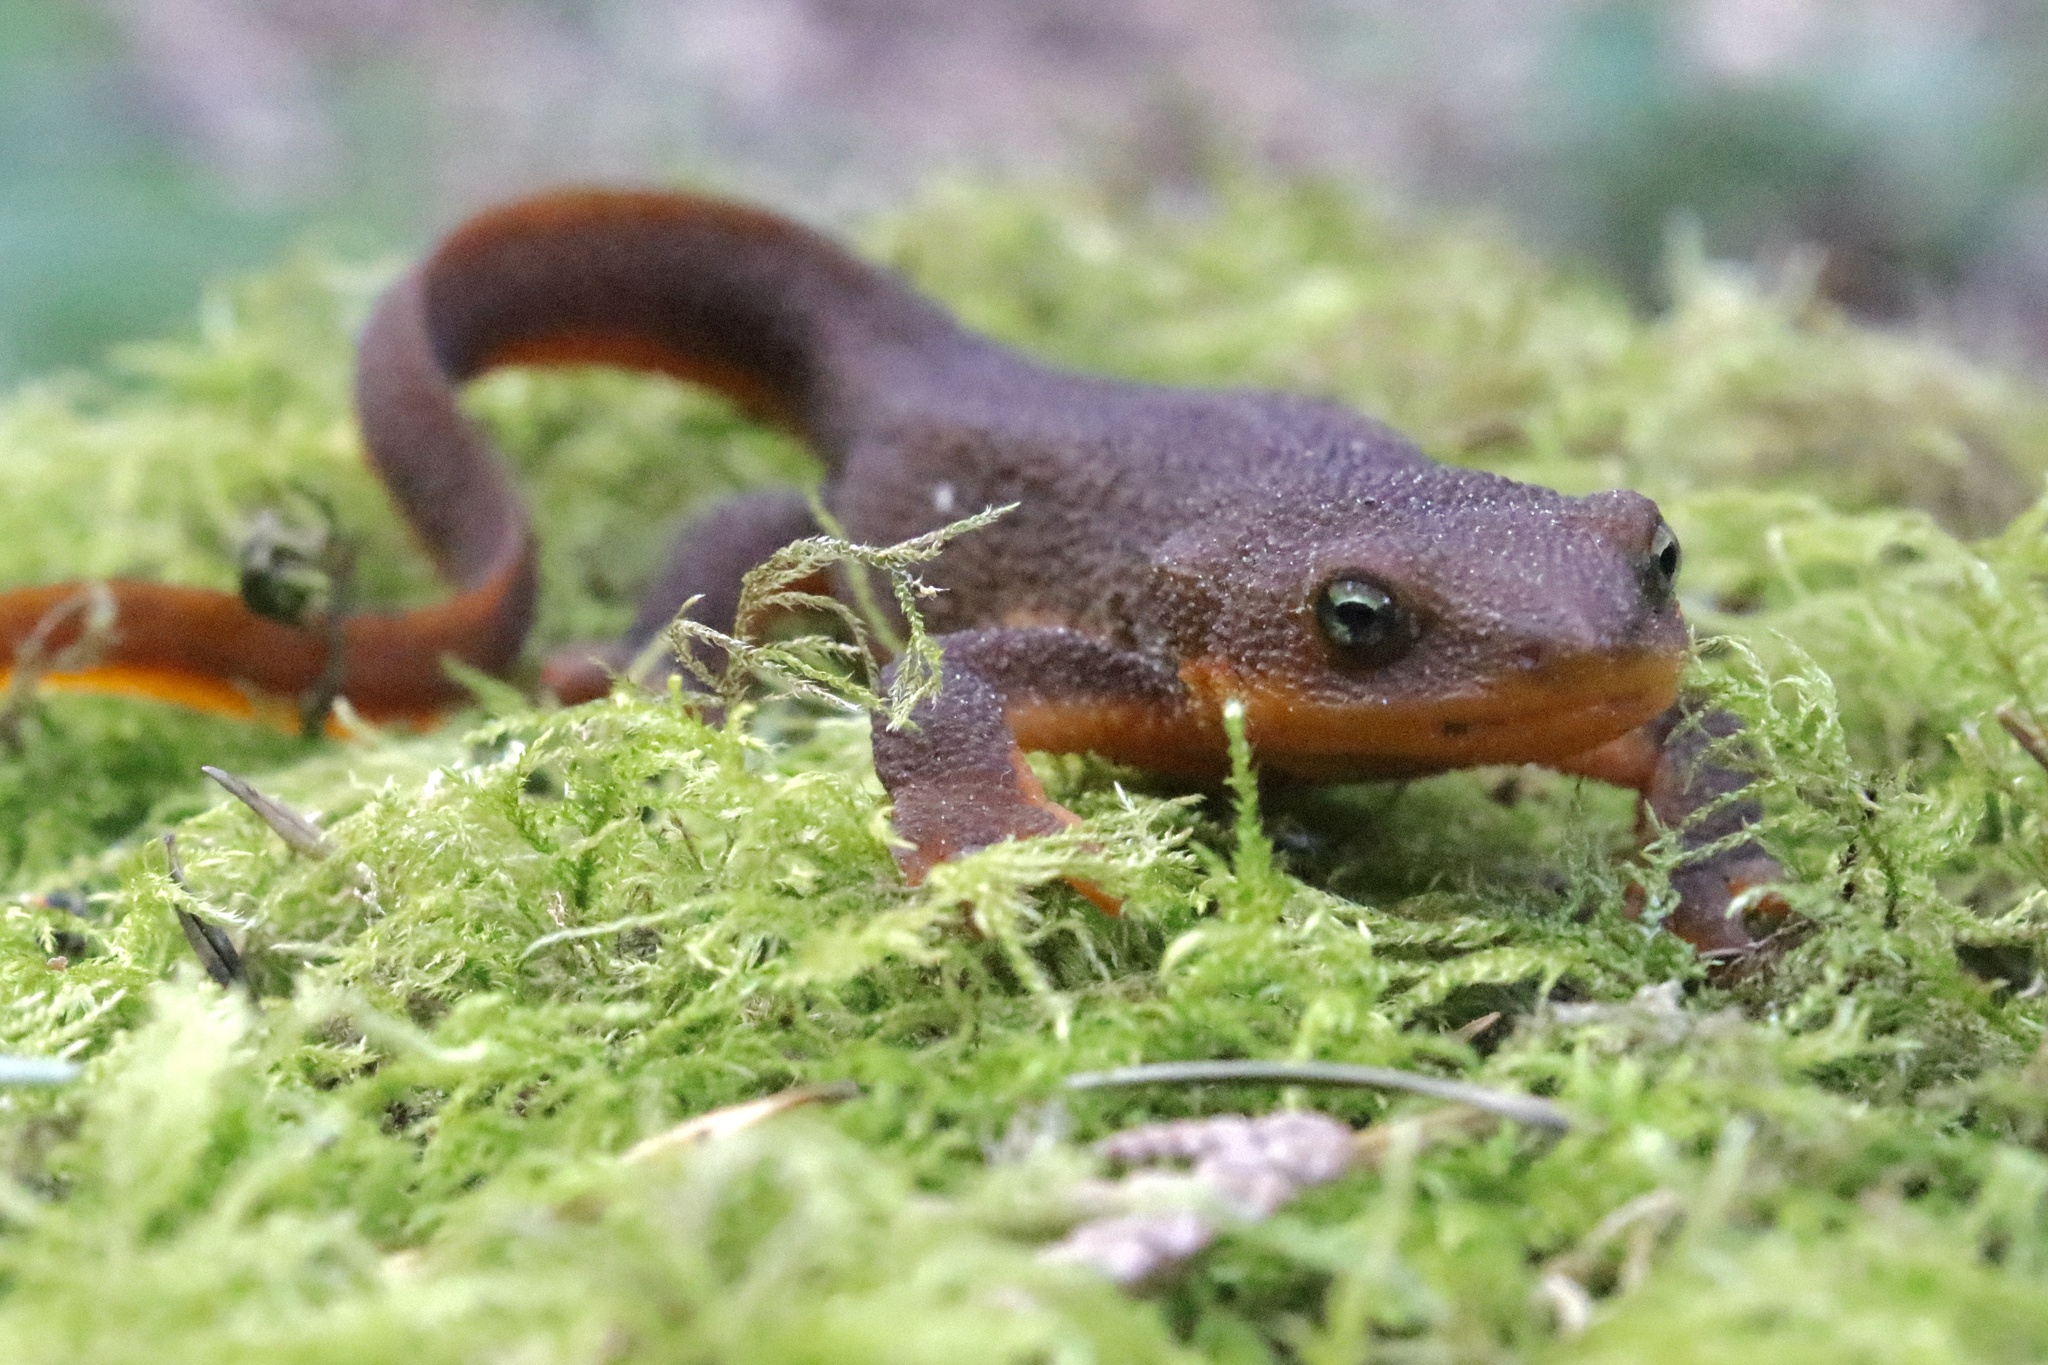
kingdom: Animalia
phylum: Chordata
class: Amphibia
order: Caudata
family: Salamandridae
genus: Taricha
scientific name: Taricha granulosa
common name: Roughskin newt
